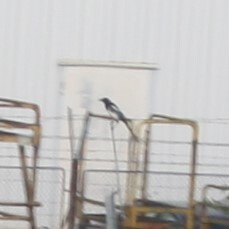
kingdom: Animalia
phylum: Chordata
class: Aves
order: Passeriformes
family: Corvidae
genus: Pica
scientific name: Pica pica
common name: Eurasian magpie
